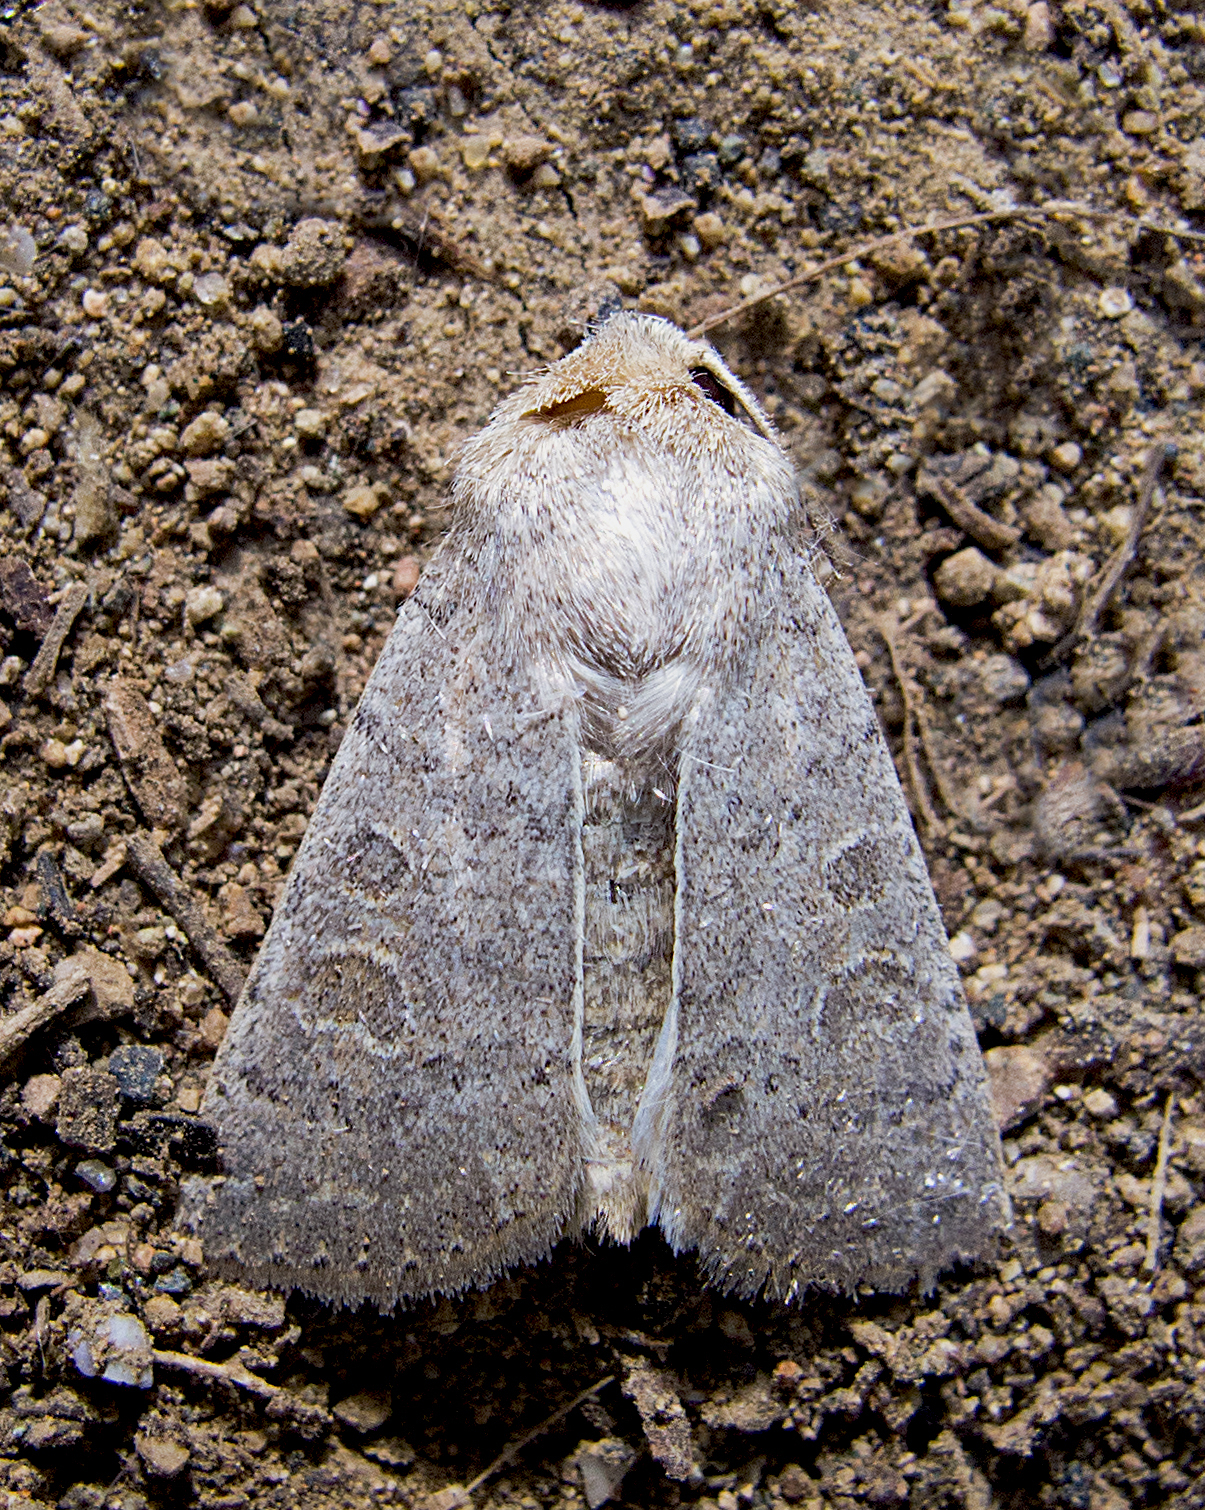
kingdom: Animalia
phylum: Arthropoda
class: Insecta
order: Lepidoptera
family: Noctuidae
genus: Hoplodrina
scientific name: Hoplodrina ambigua
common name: Vine's rustic
